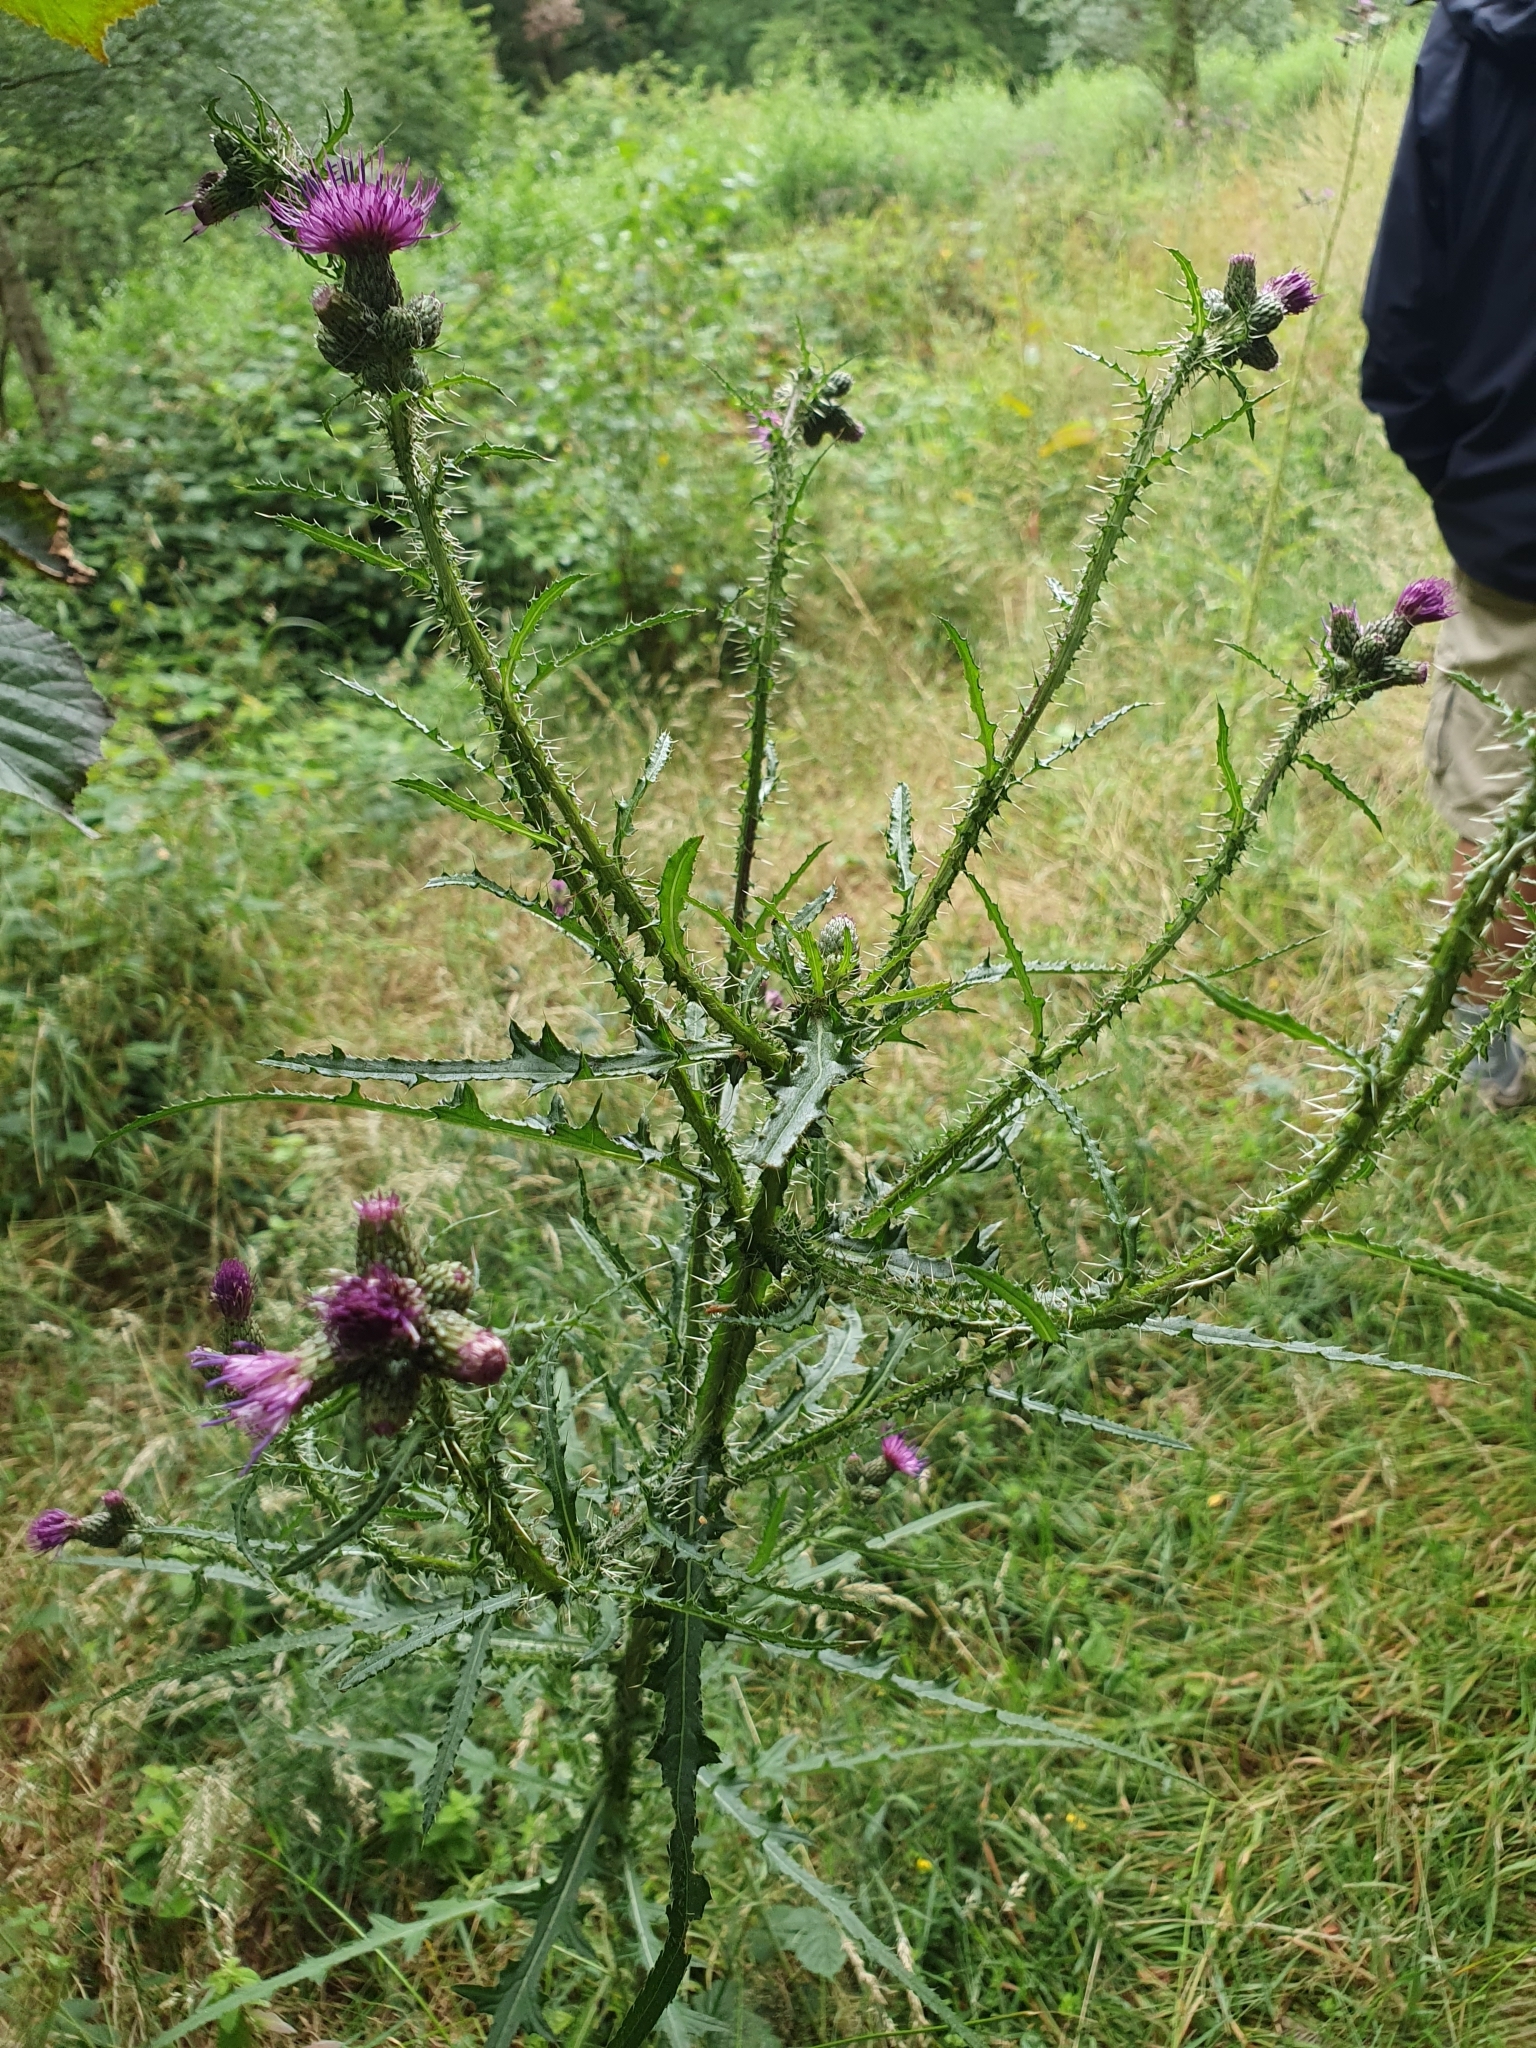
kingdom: Plantae
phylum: Tracheophyta
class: Magnoliopsida
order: Asterales
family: Asteraceae
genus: Cirsium
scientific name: Cirsium palustre
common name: Marsh thistle
